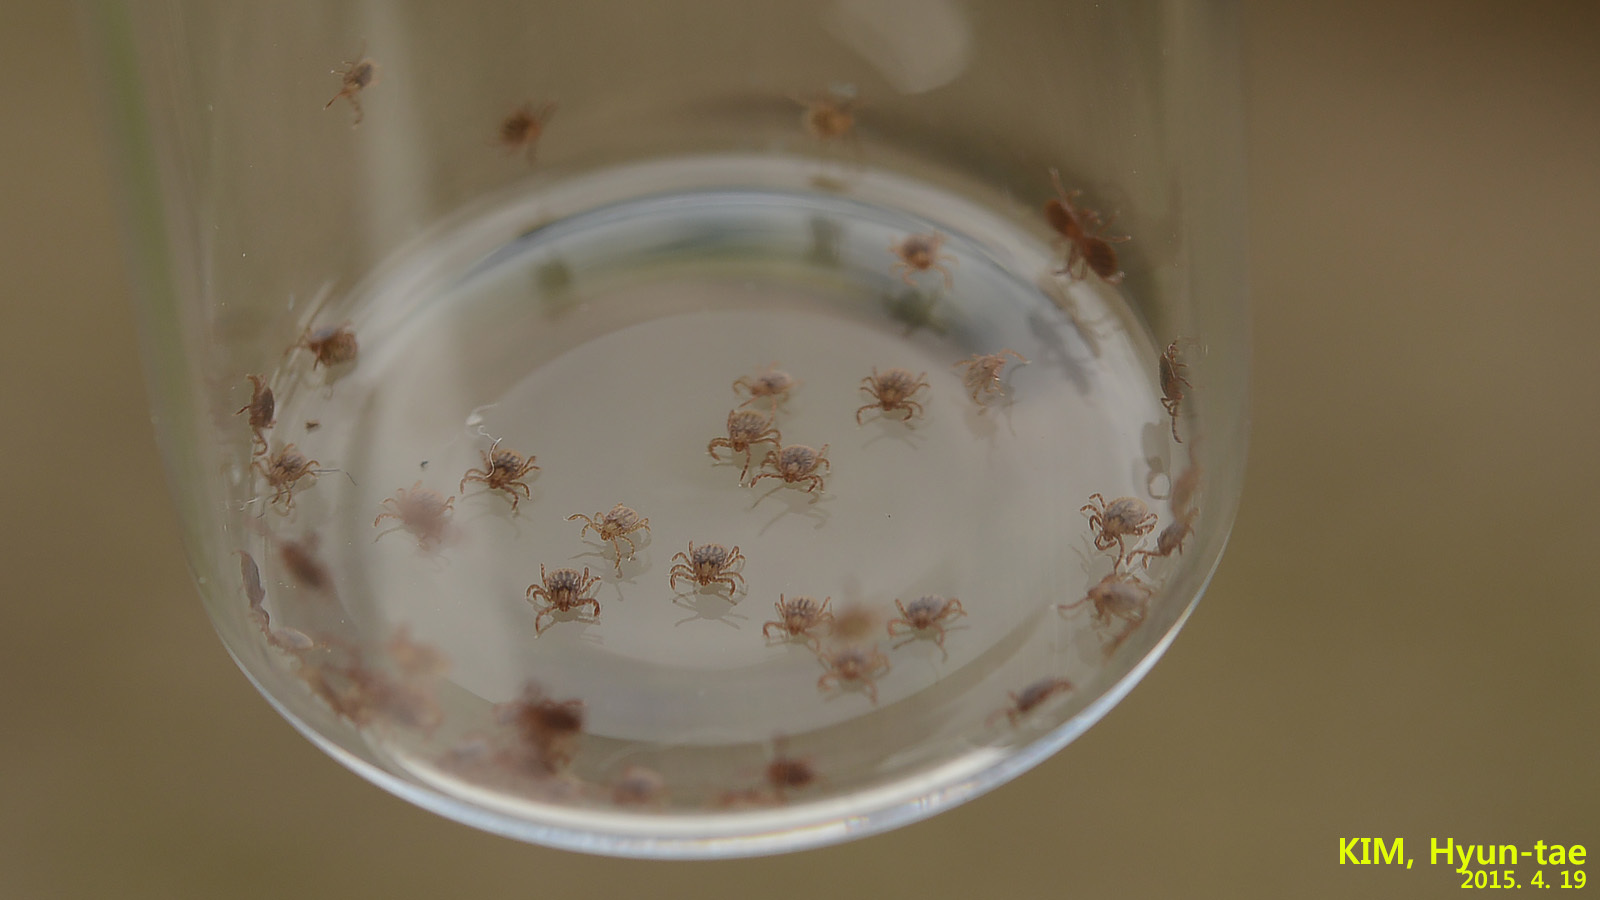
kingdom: Animalia
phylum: Arthropoda
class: Arachnida
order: Ixodida
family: Ixodidae
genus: Haemaphysalis
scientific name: Haemaphysalis longicornis
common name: Bush tick
